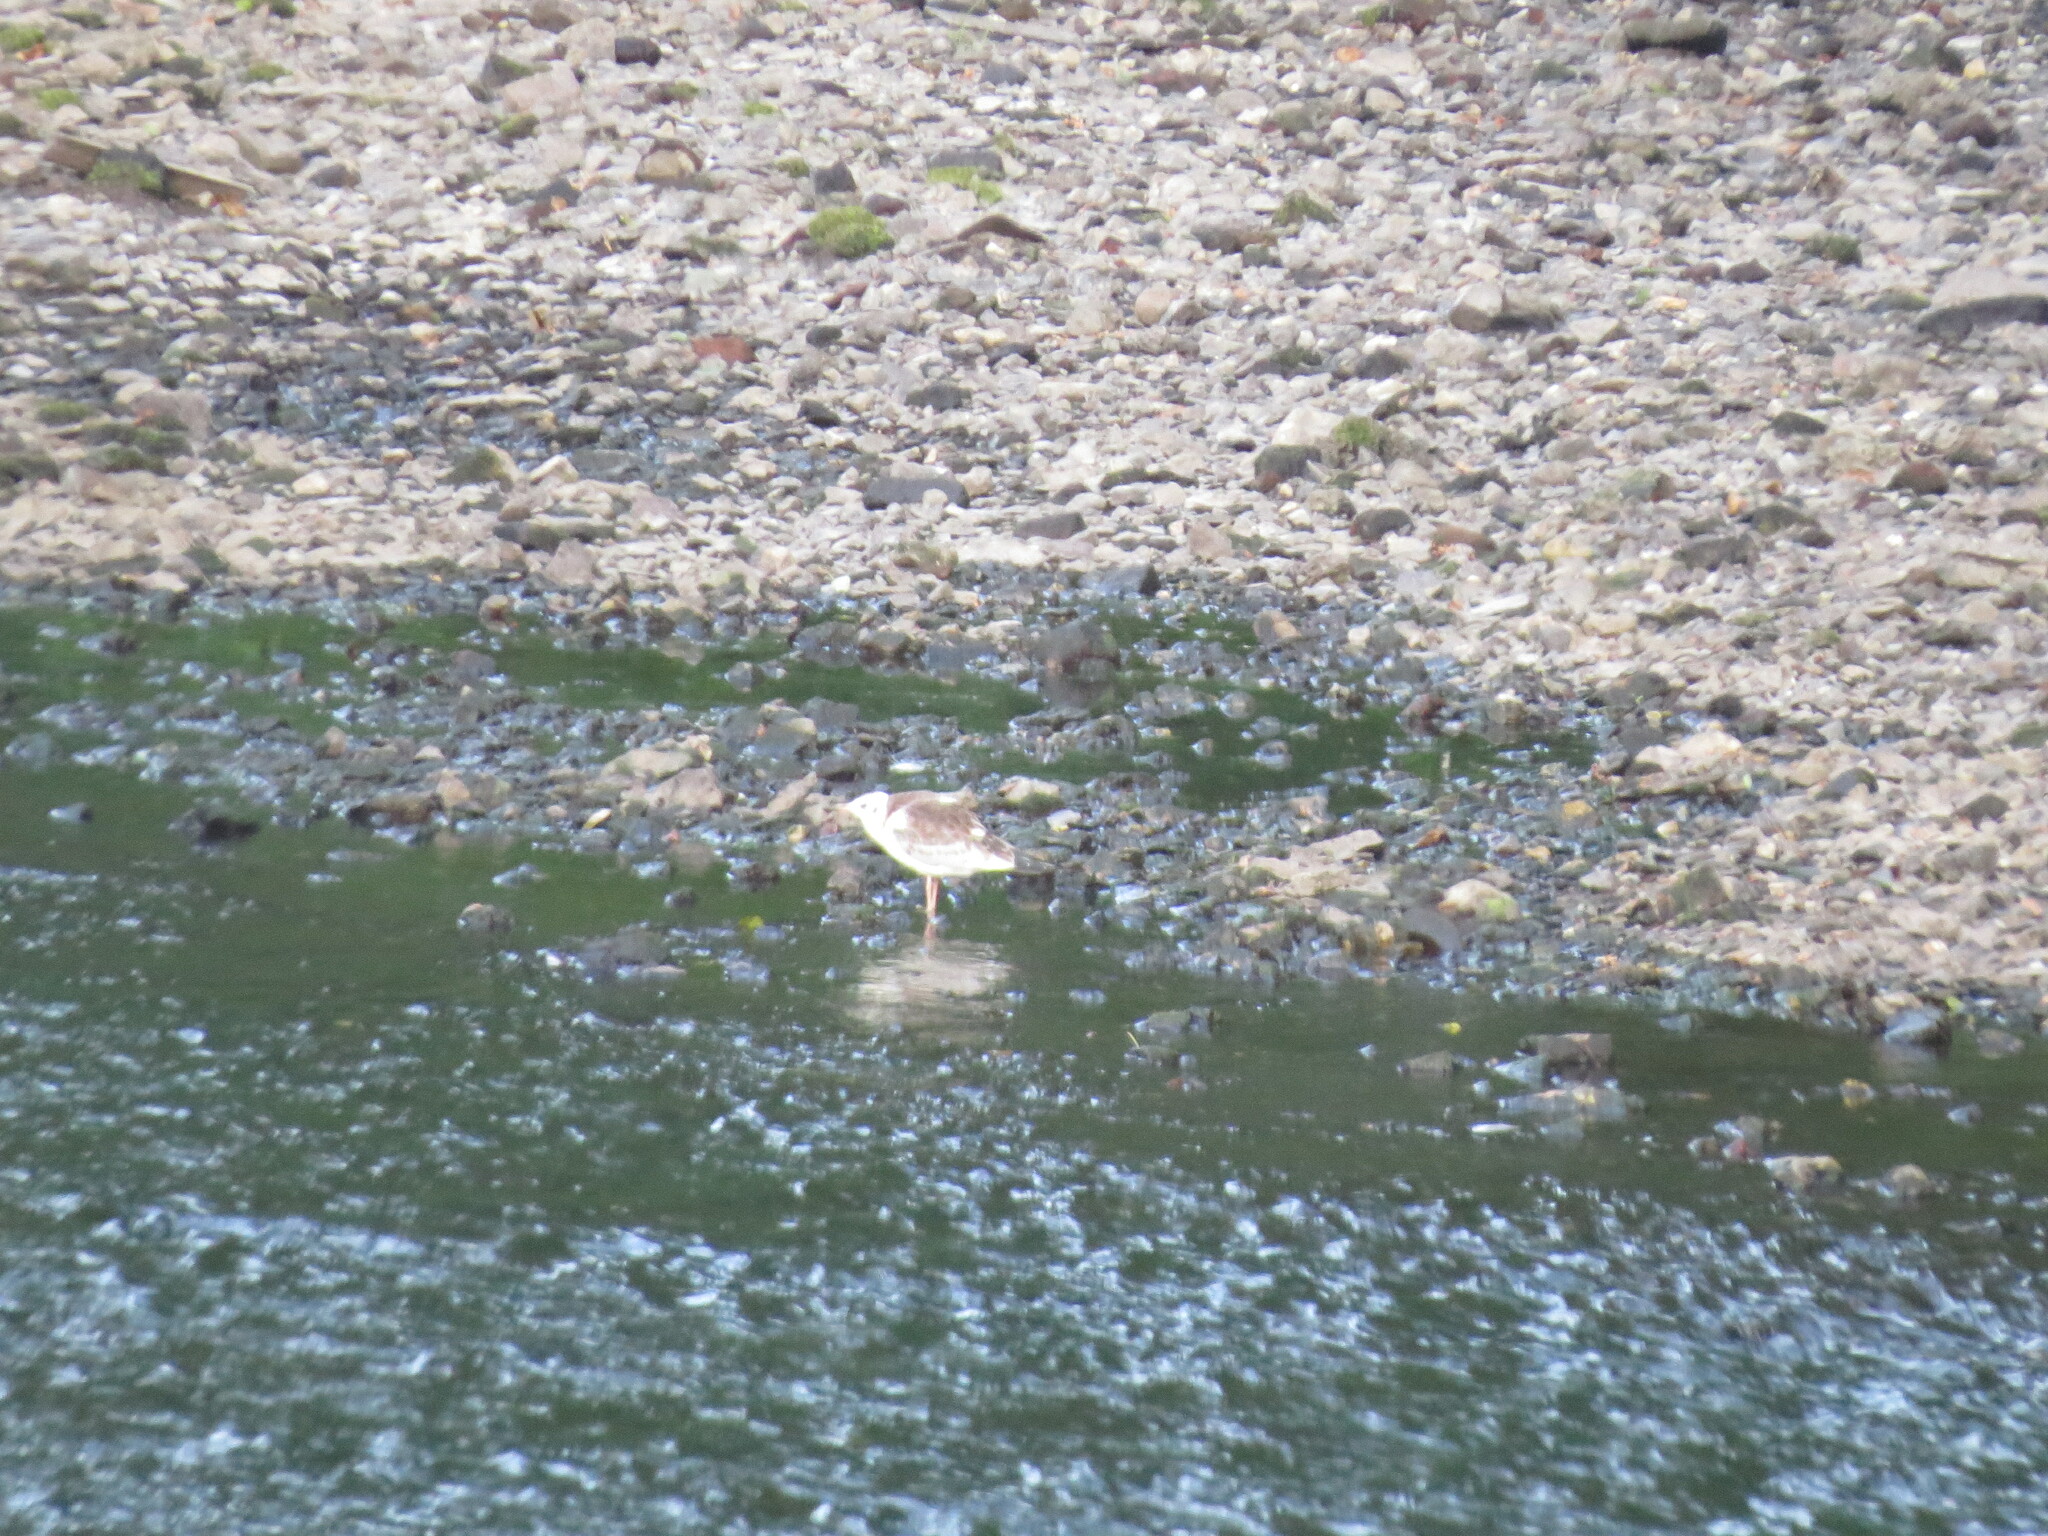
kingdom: Animalia
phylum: Chordata
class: Aves
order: Charadriiformes
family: Laridae
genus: Chroicocephalus
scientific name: Chroicocephalus ridibundus
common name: Black-headed gull
